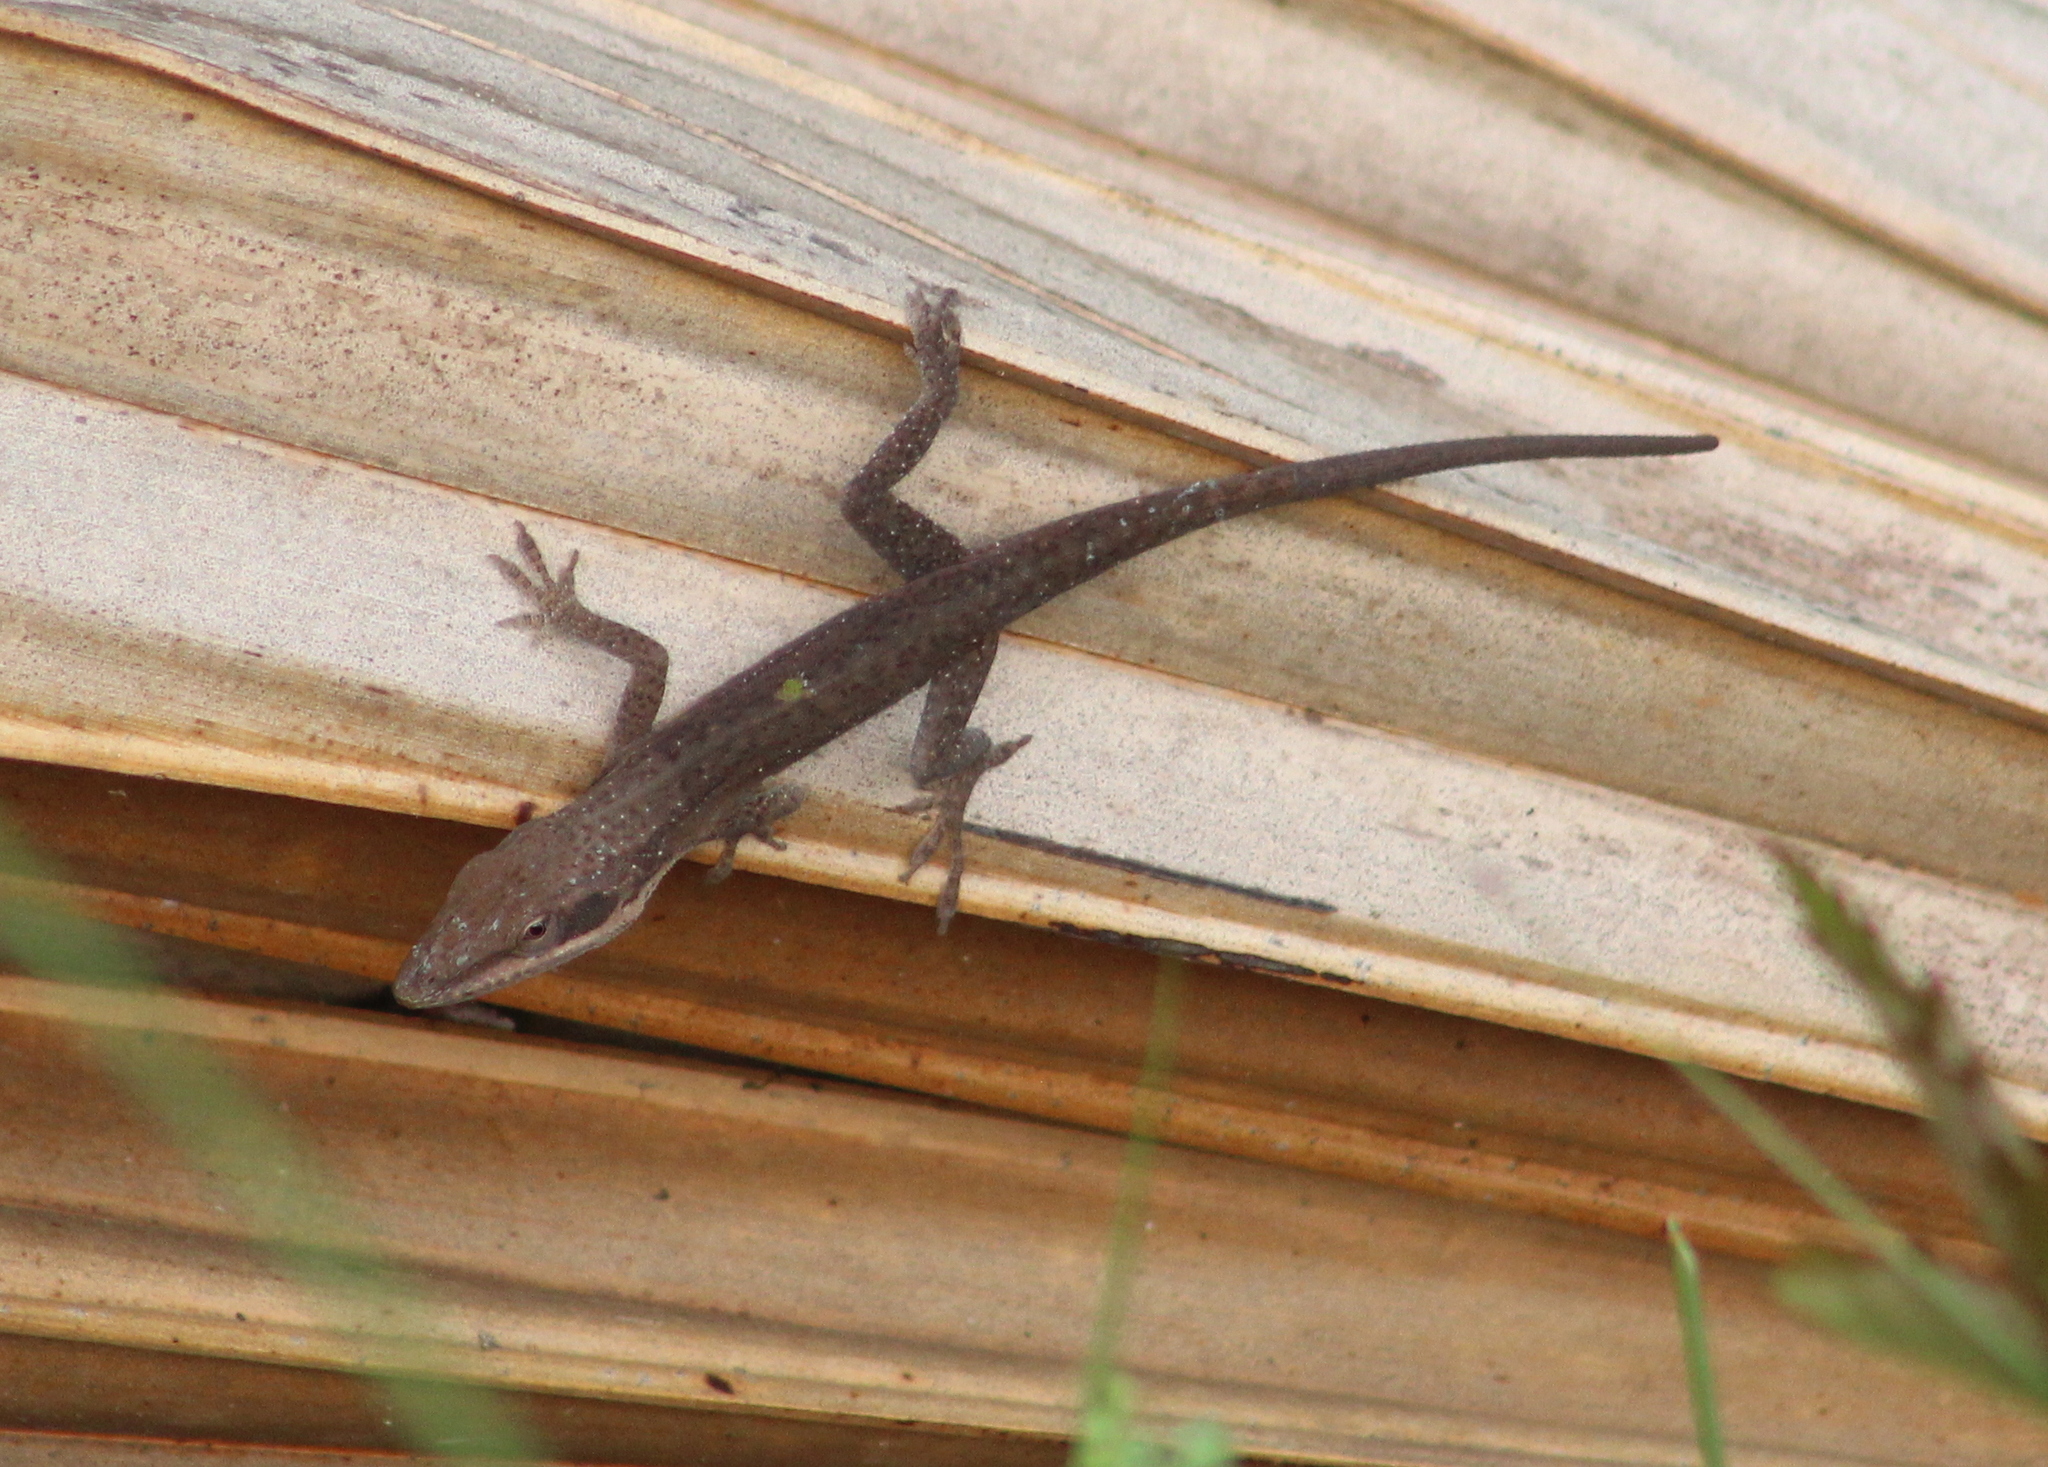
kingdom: Animalia
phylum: Chordata
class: Squamata
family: Dactyloidae
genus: Anolis
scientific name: Anolis carolinensis
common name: Green anole
